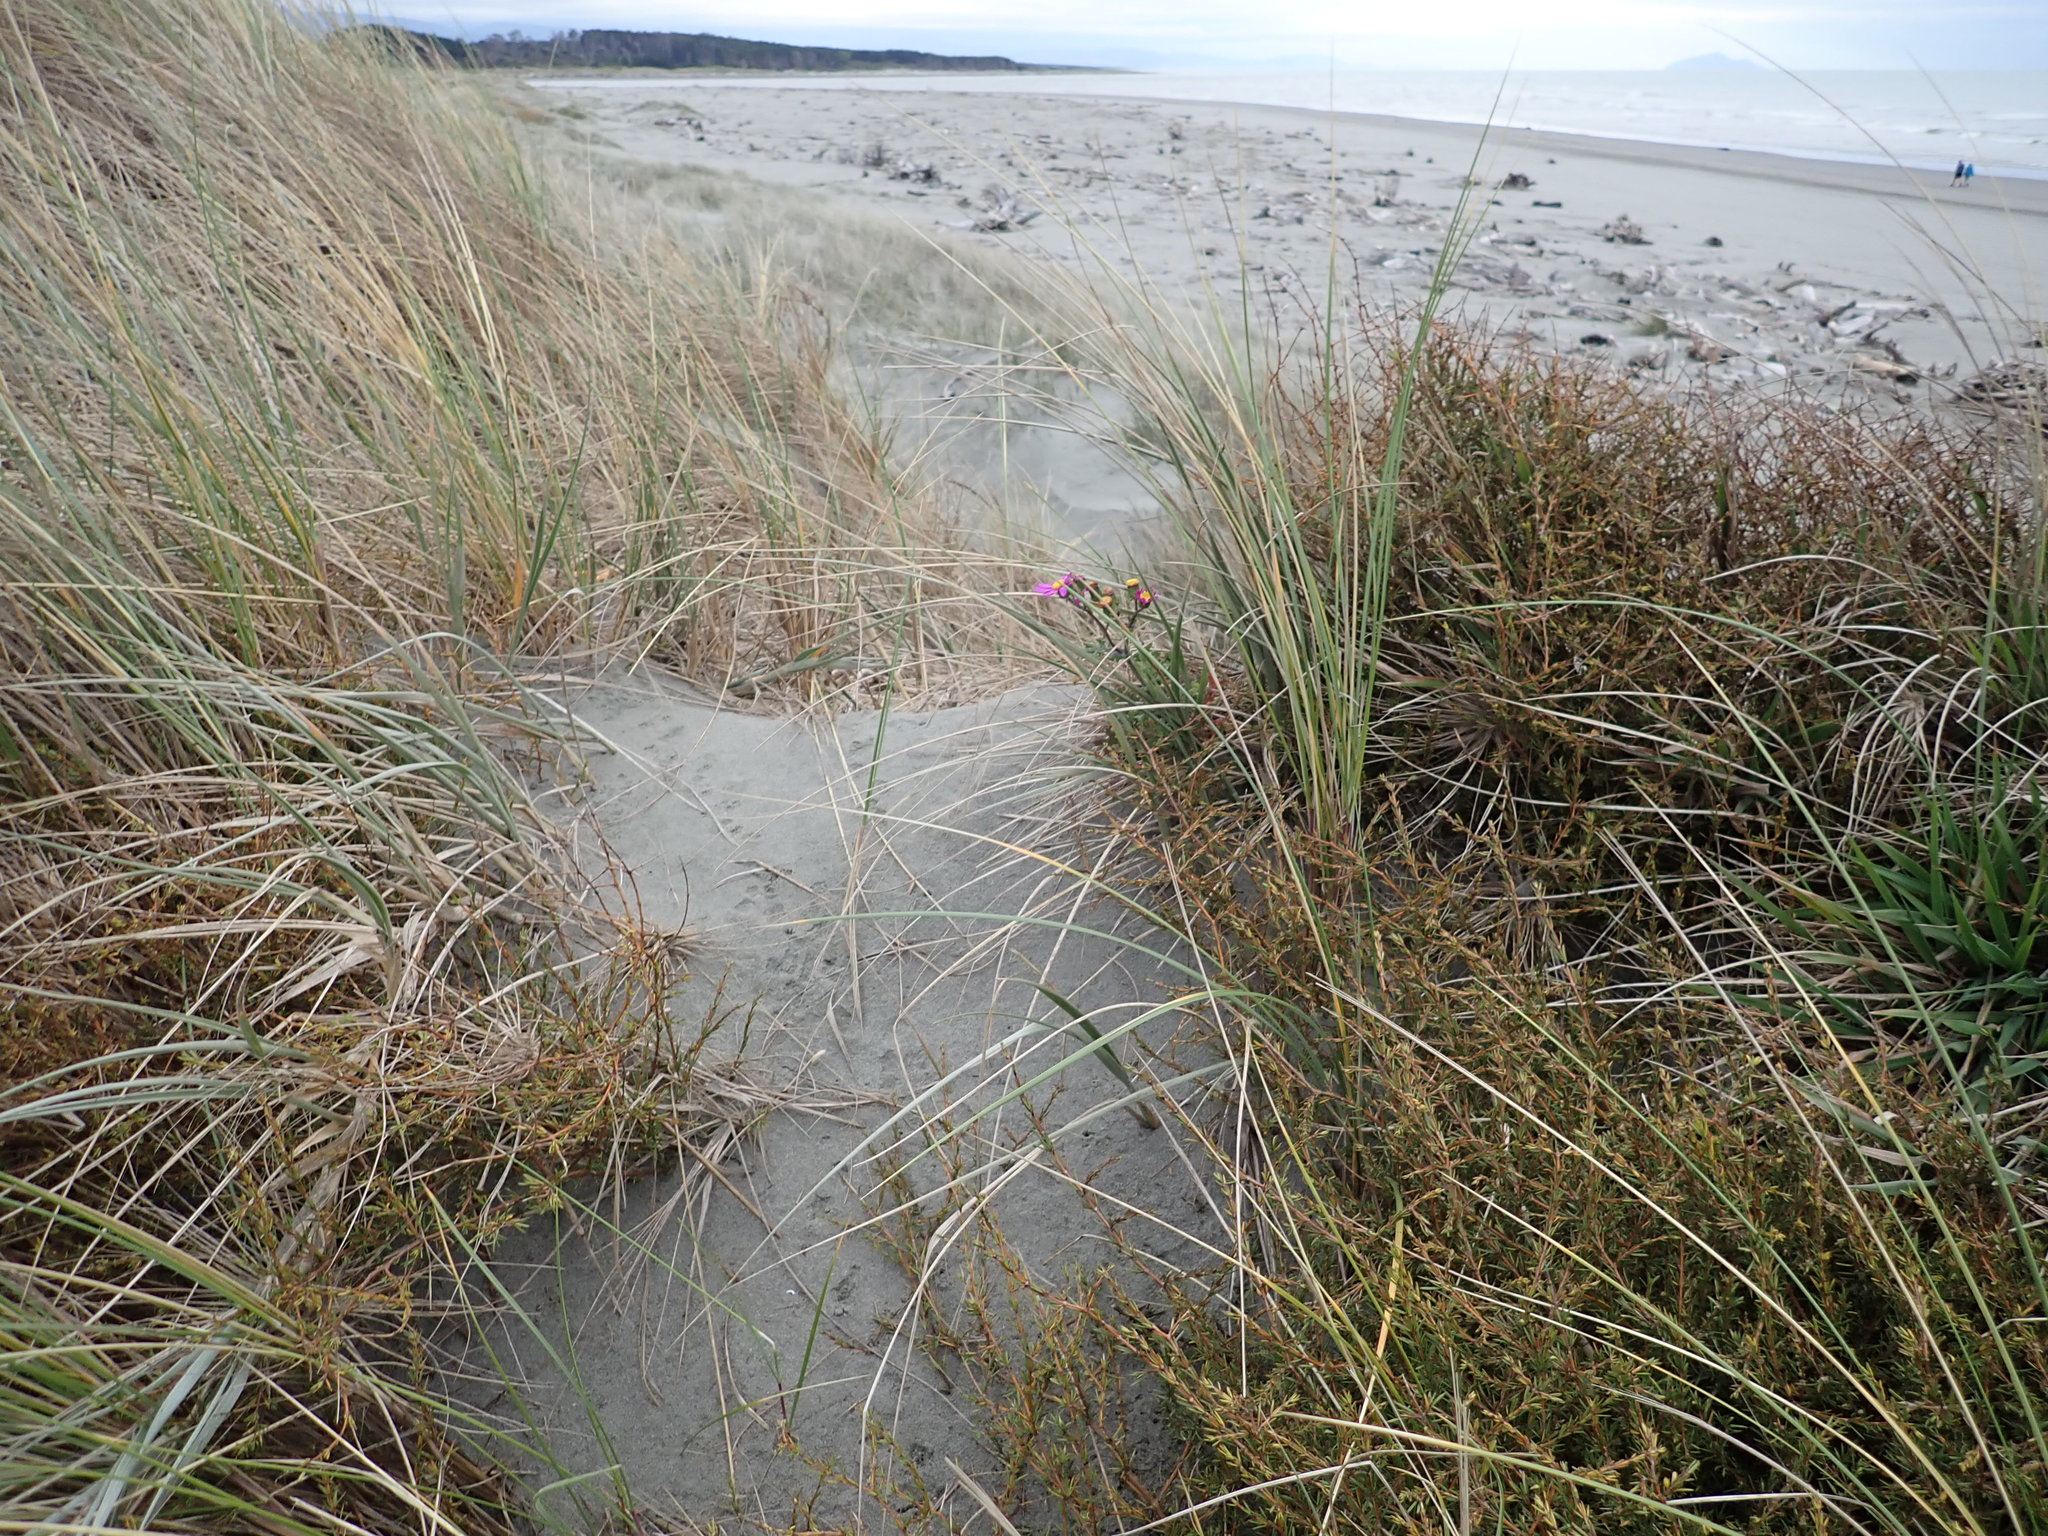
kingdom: Plantae
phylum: Tracheophyta
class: Magnoliopsida
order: Asterales
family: Asteraceae
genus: Senecio
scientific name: Senecio elegans
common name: Purple groundsel
